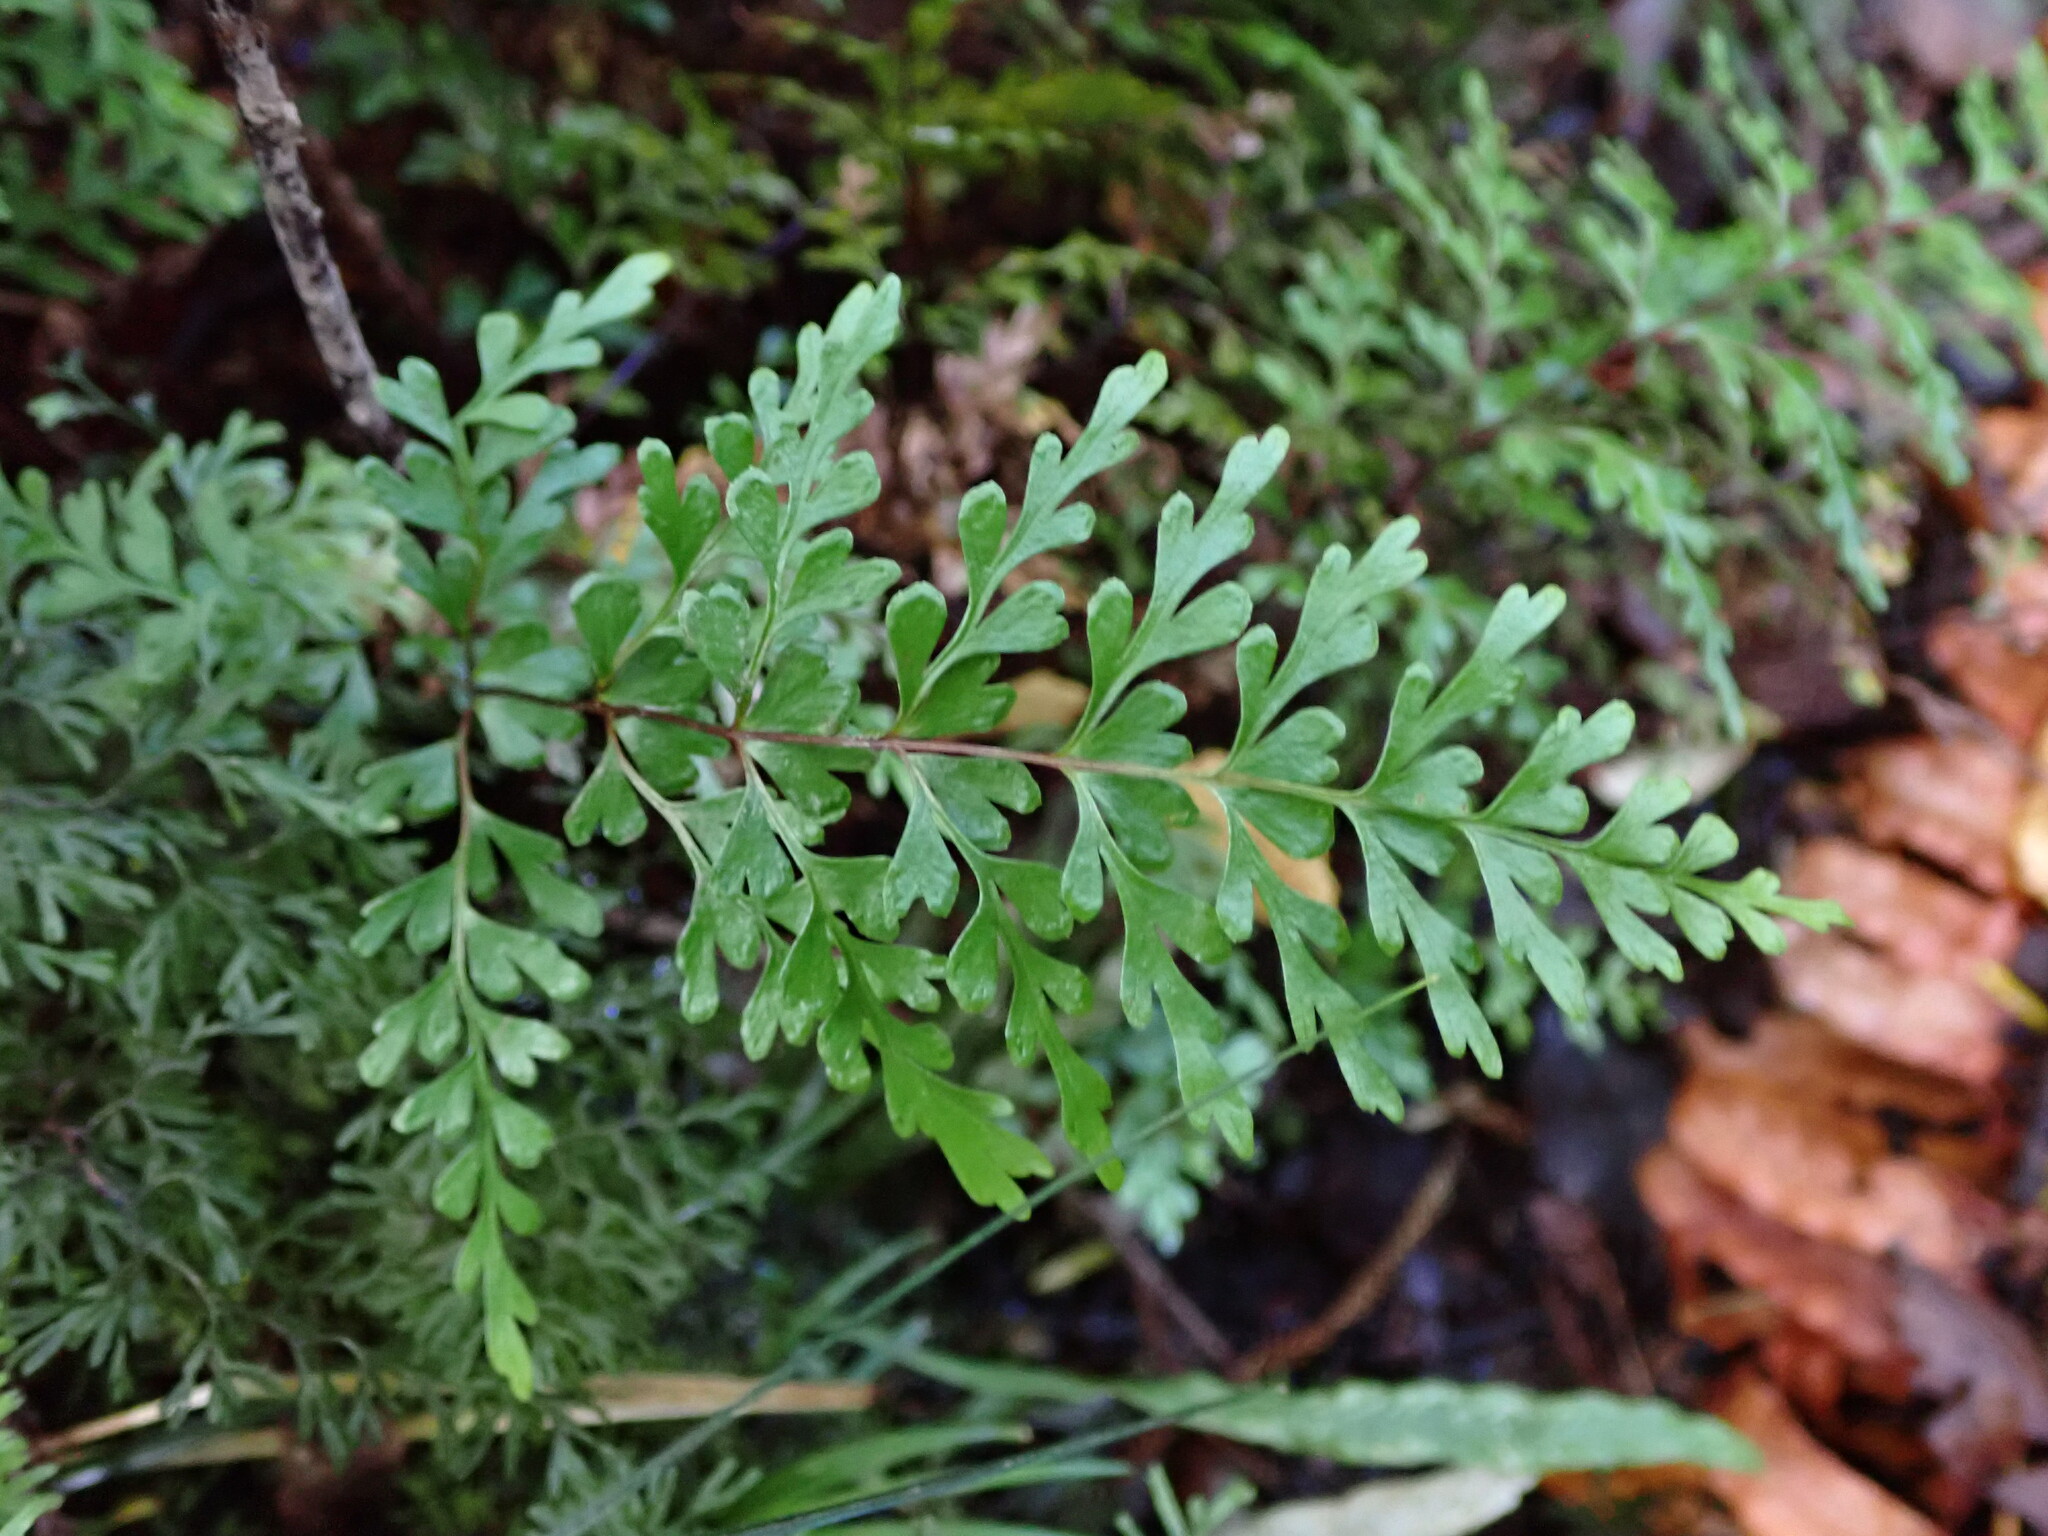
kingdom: Plantae
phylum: Tracheophyta
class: Polypodiopsida
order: Polypodiales
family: Lindsaeaceae
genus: Lindsaea
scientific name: Lindsaea trichomanoides
